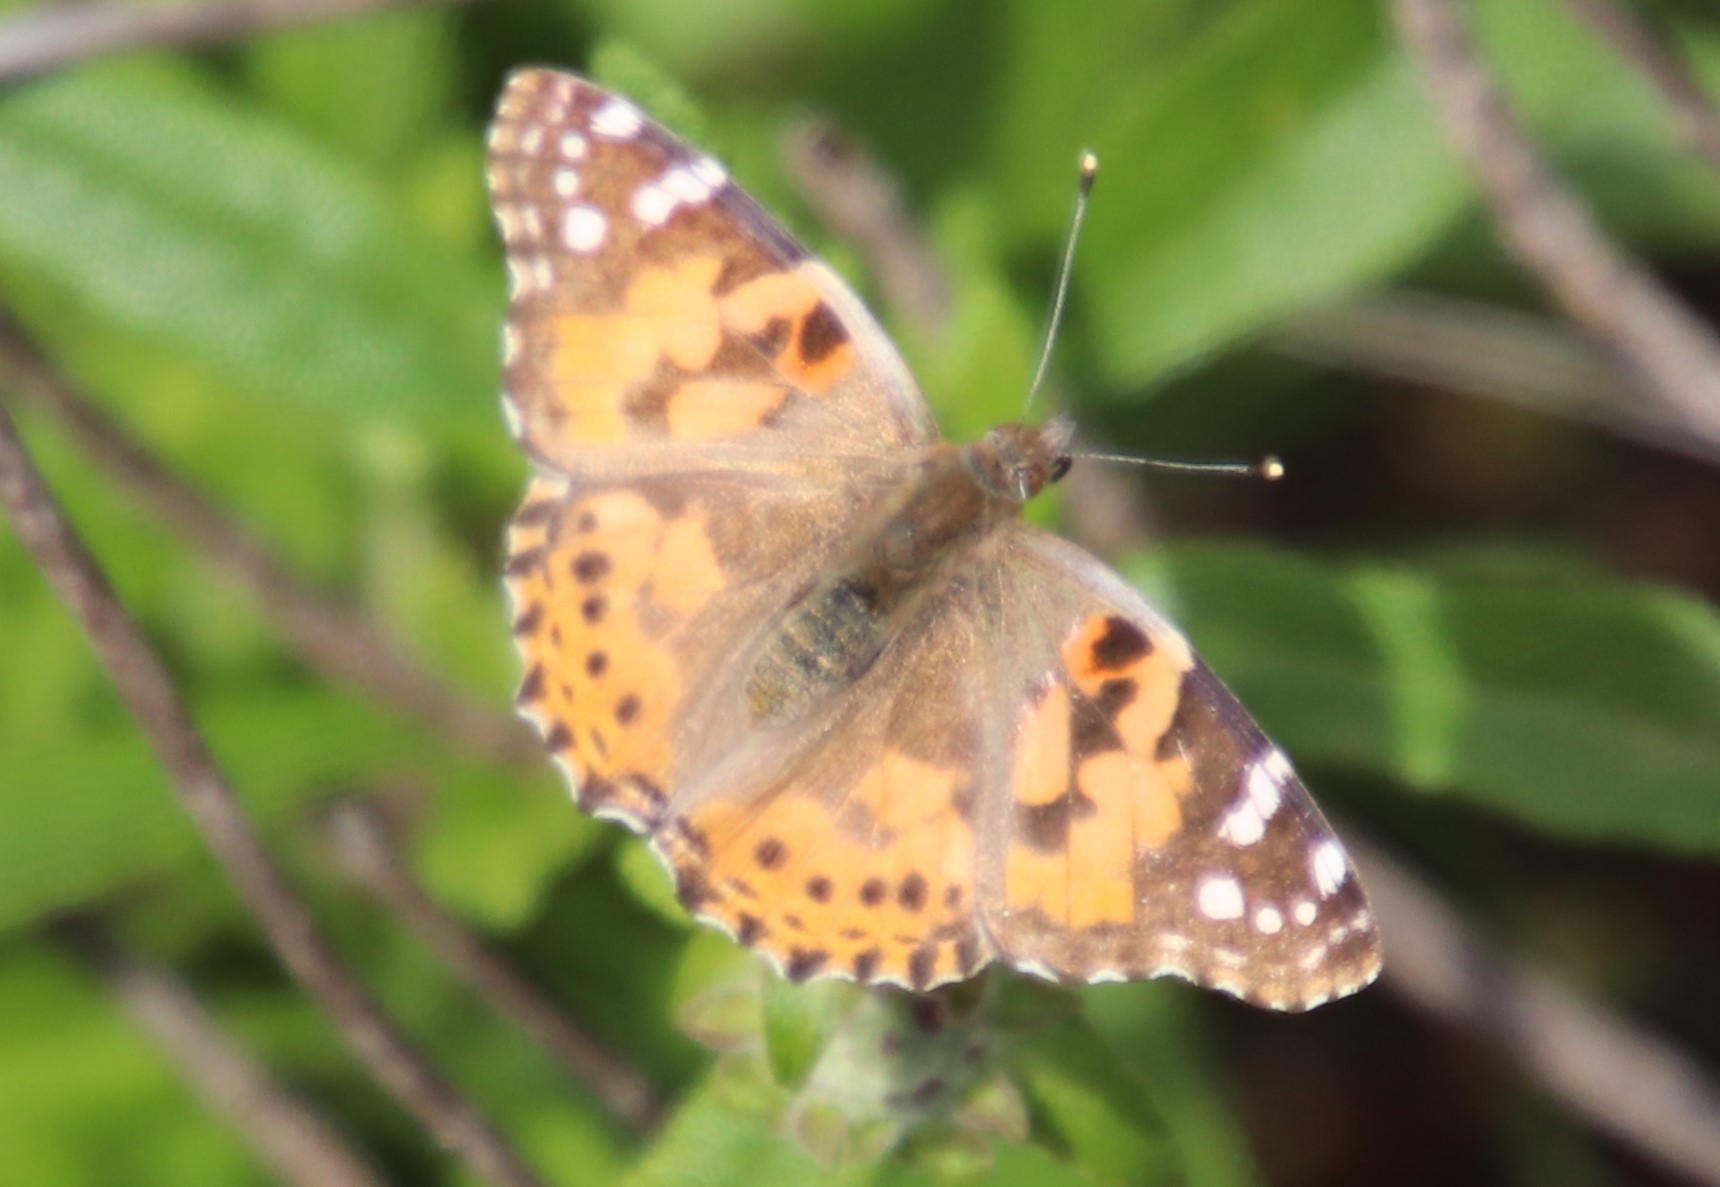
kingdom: Animalia
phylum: Arthropoda
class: Insecta
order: Lepidoptera
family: Nymphalidae
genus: Vanessa
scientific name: Vanessa cardui
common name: Painted lady
